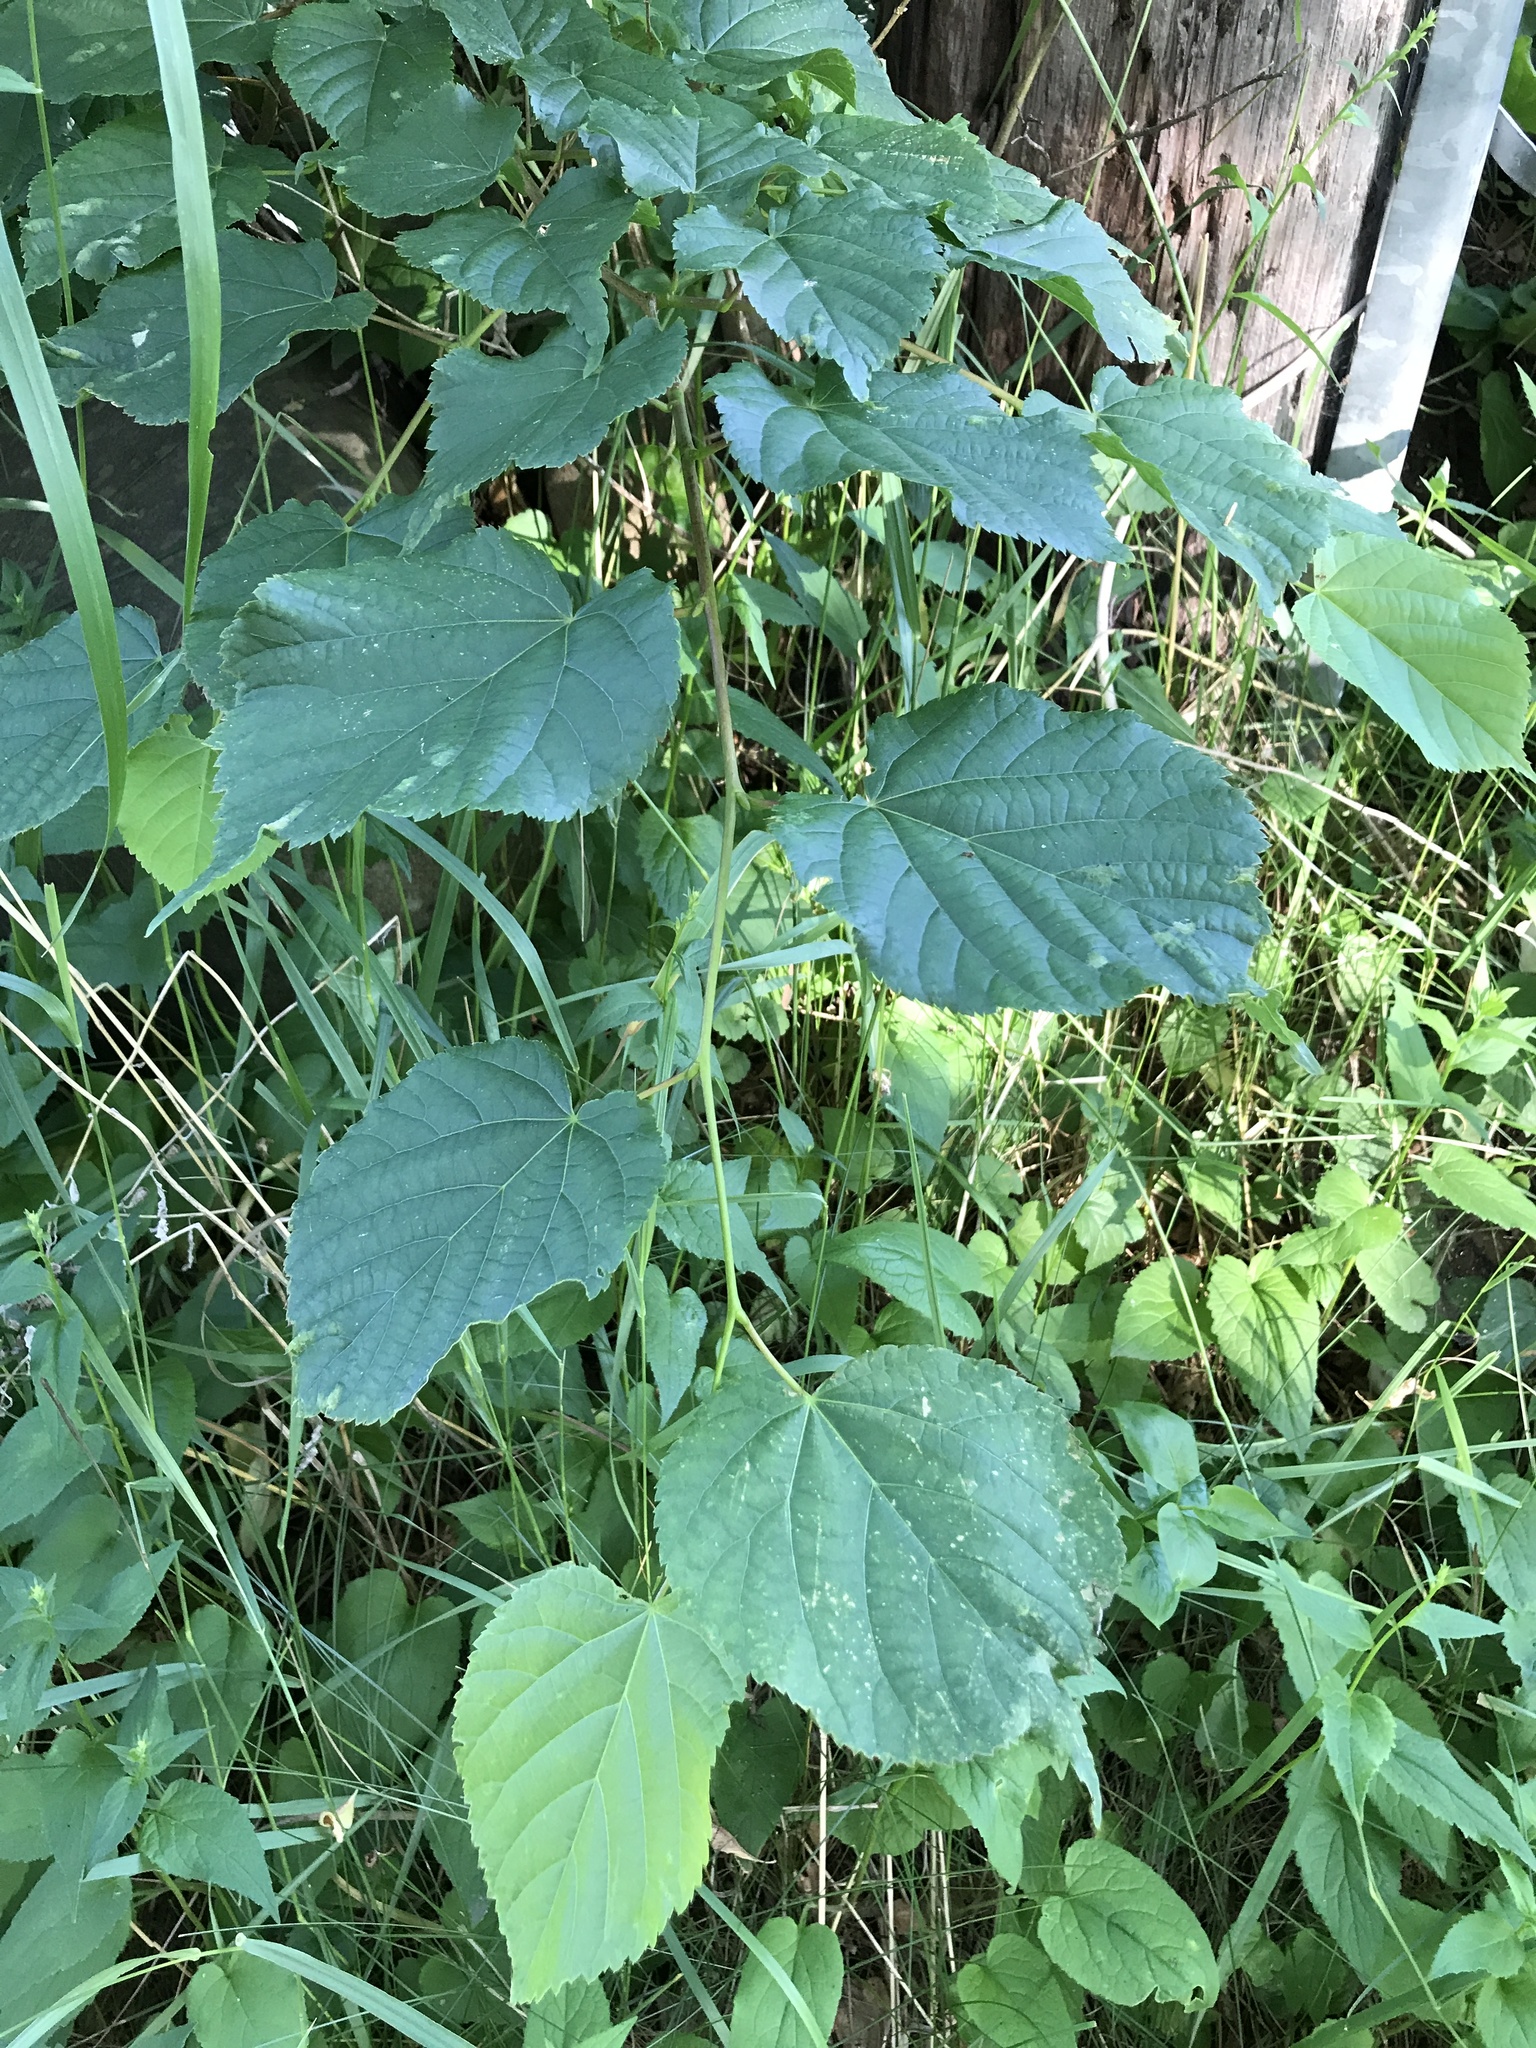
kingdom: Plantae
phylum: Tracheophyta
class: Magnoliopsida
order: Malvales
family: Malvaceae
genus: Tilia
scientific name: Tilia cordata
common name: Small-leaved lime
